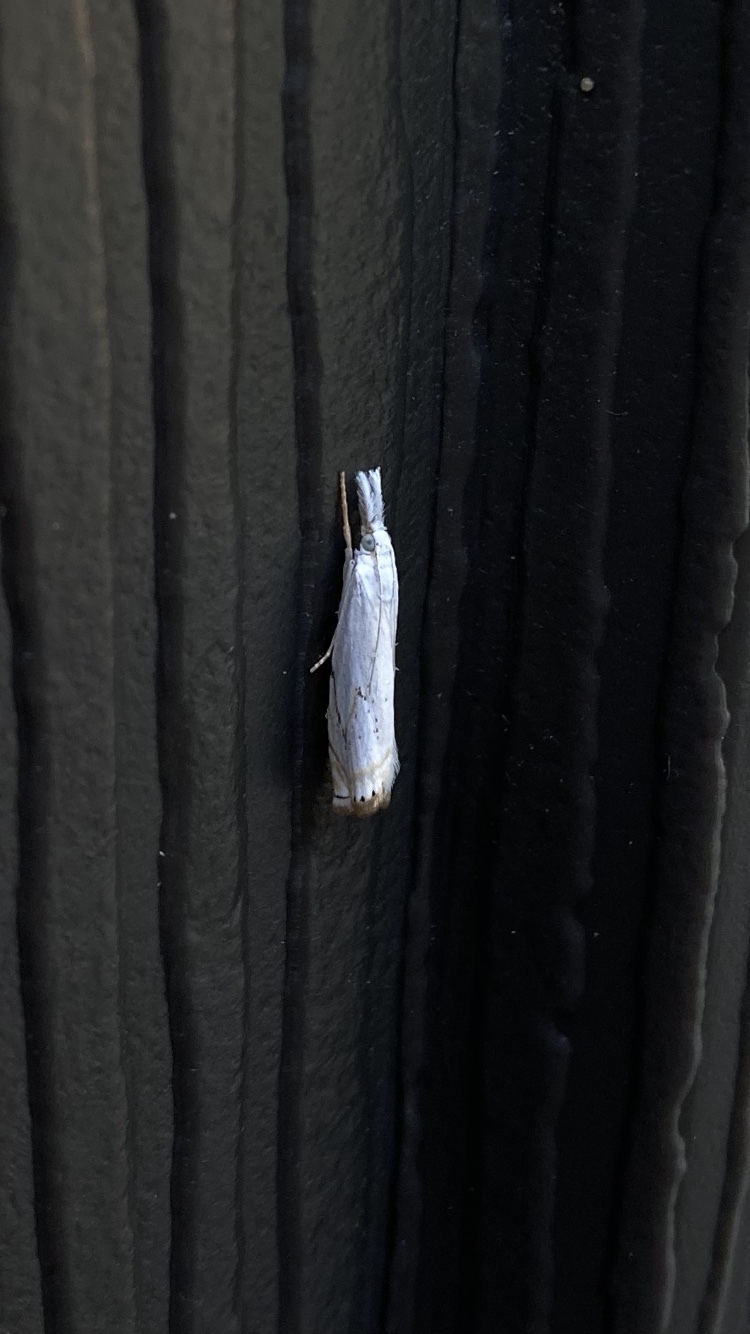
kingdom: Animalia
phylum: Arthropoda
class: Insecta
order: Lepidoptera
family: Crambidae
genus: Crambus
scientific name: Crambus albellus
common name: Small white grass-veneer
